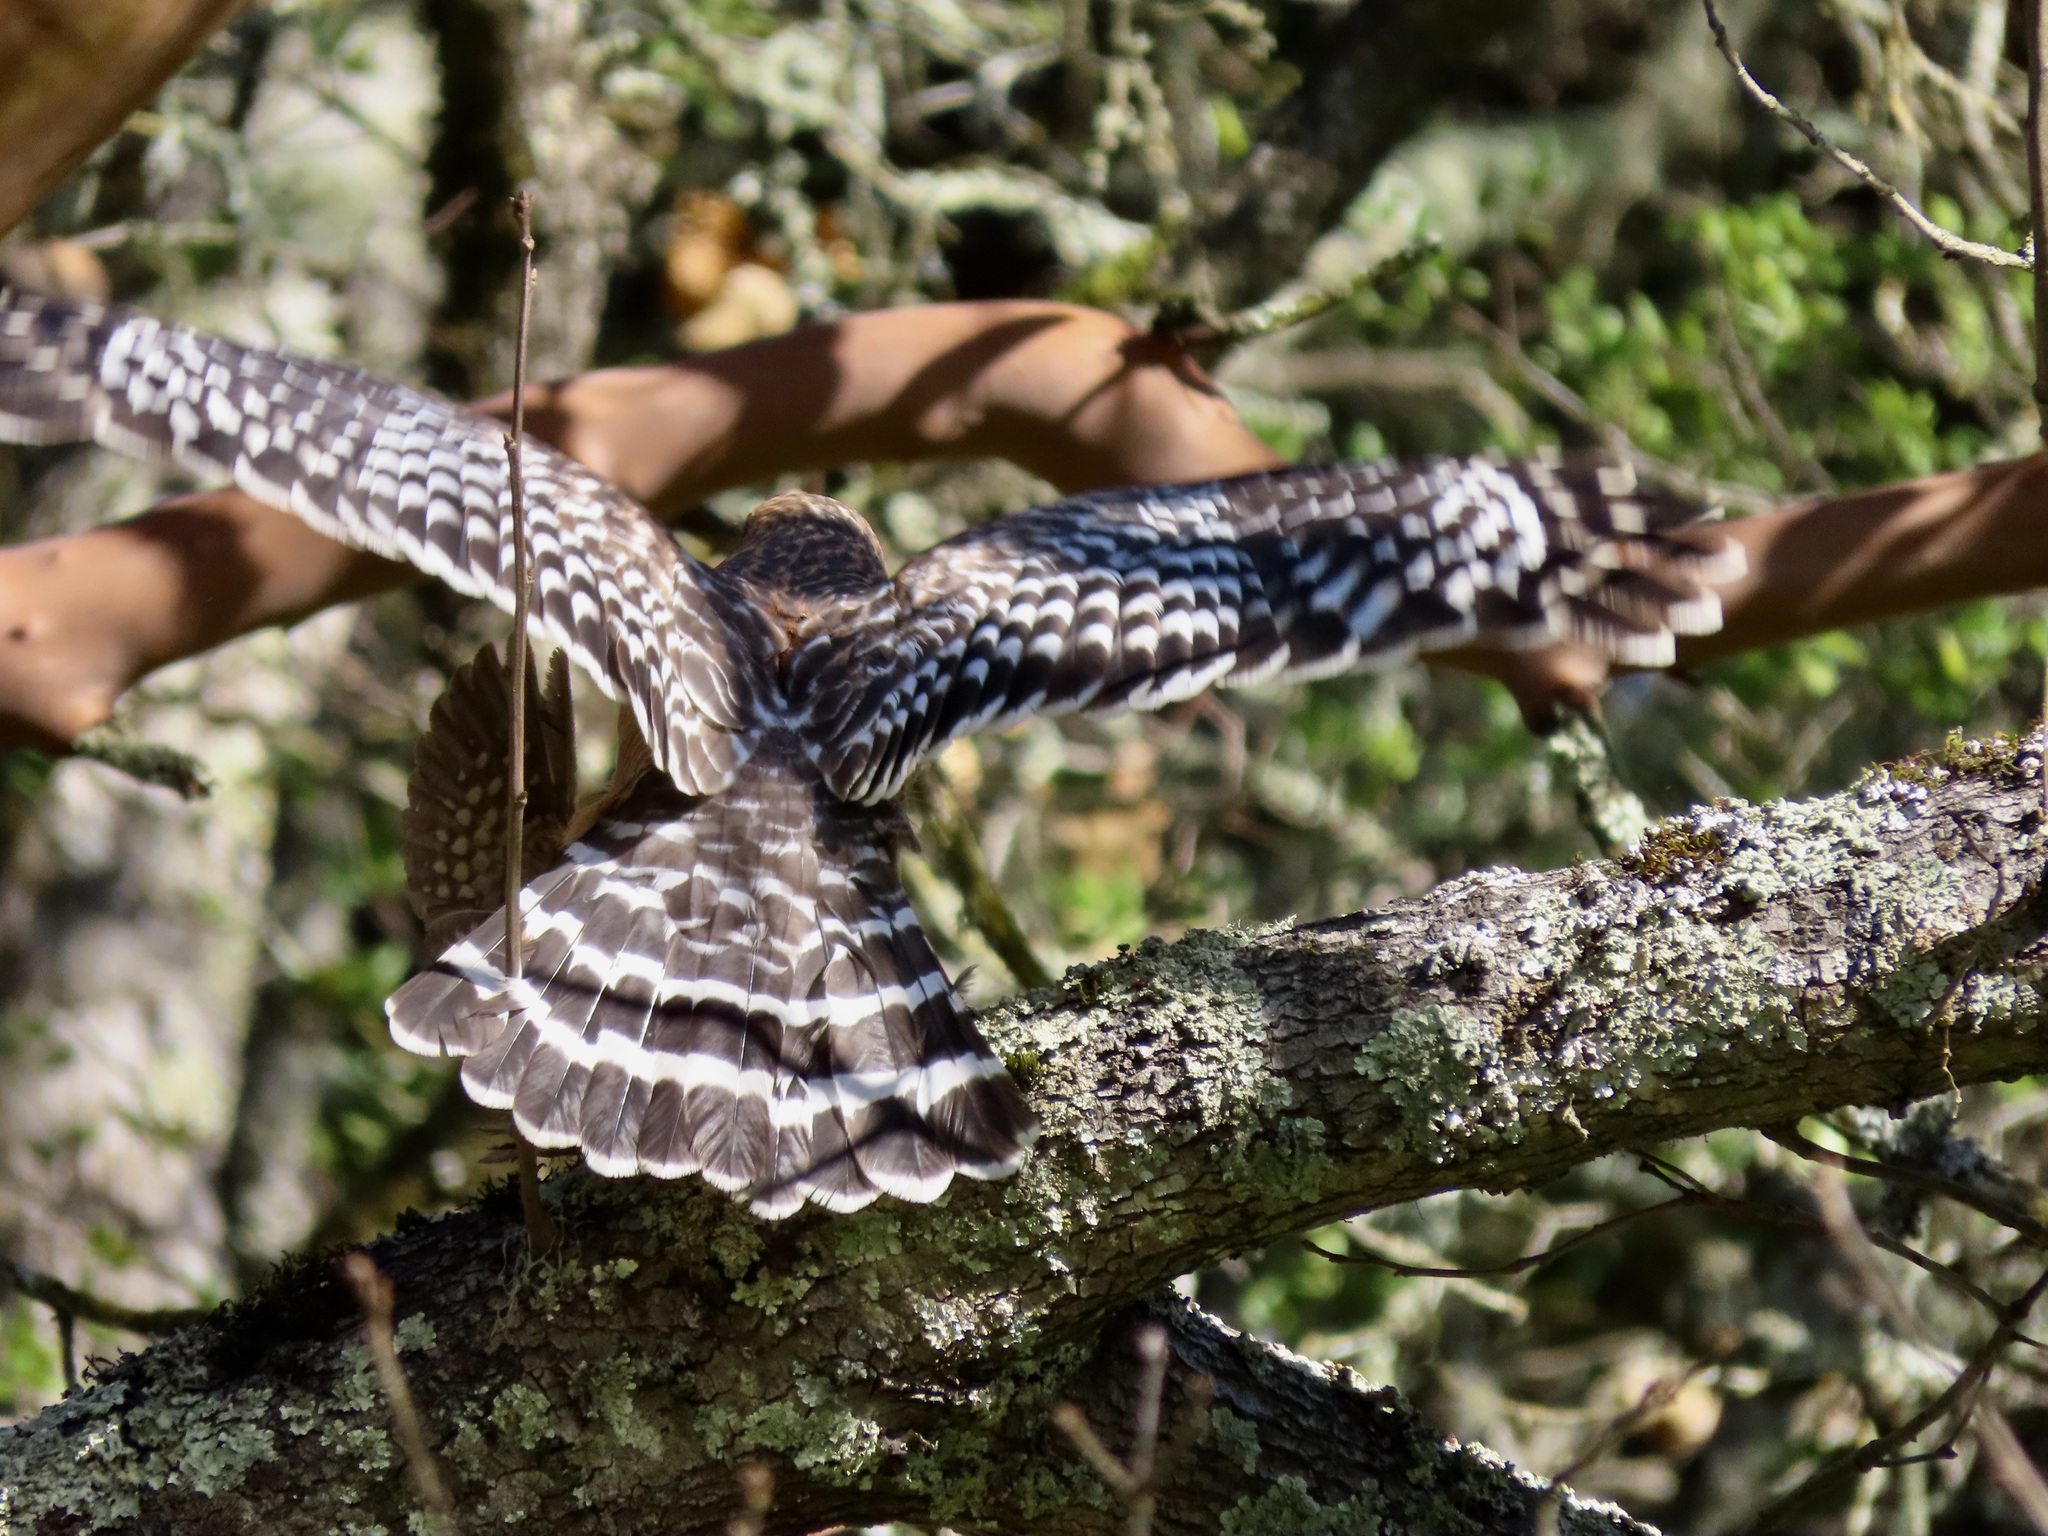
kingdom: Animalia
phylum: Chordata
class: Aves
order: Accipitriformes
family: Accipitridae
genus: Buteo
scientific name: Buteo lineatus
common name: Red-shouldered hawk
